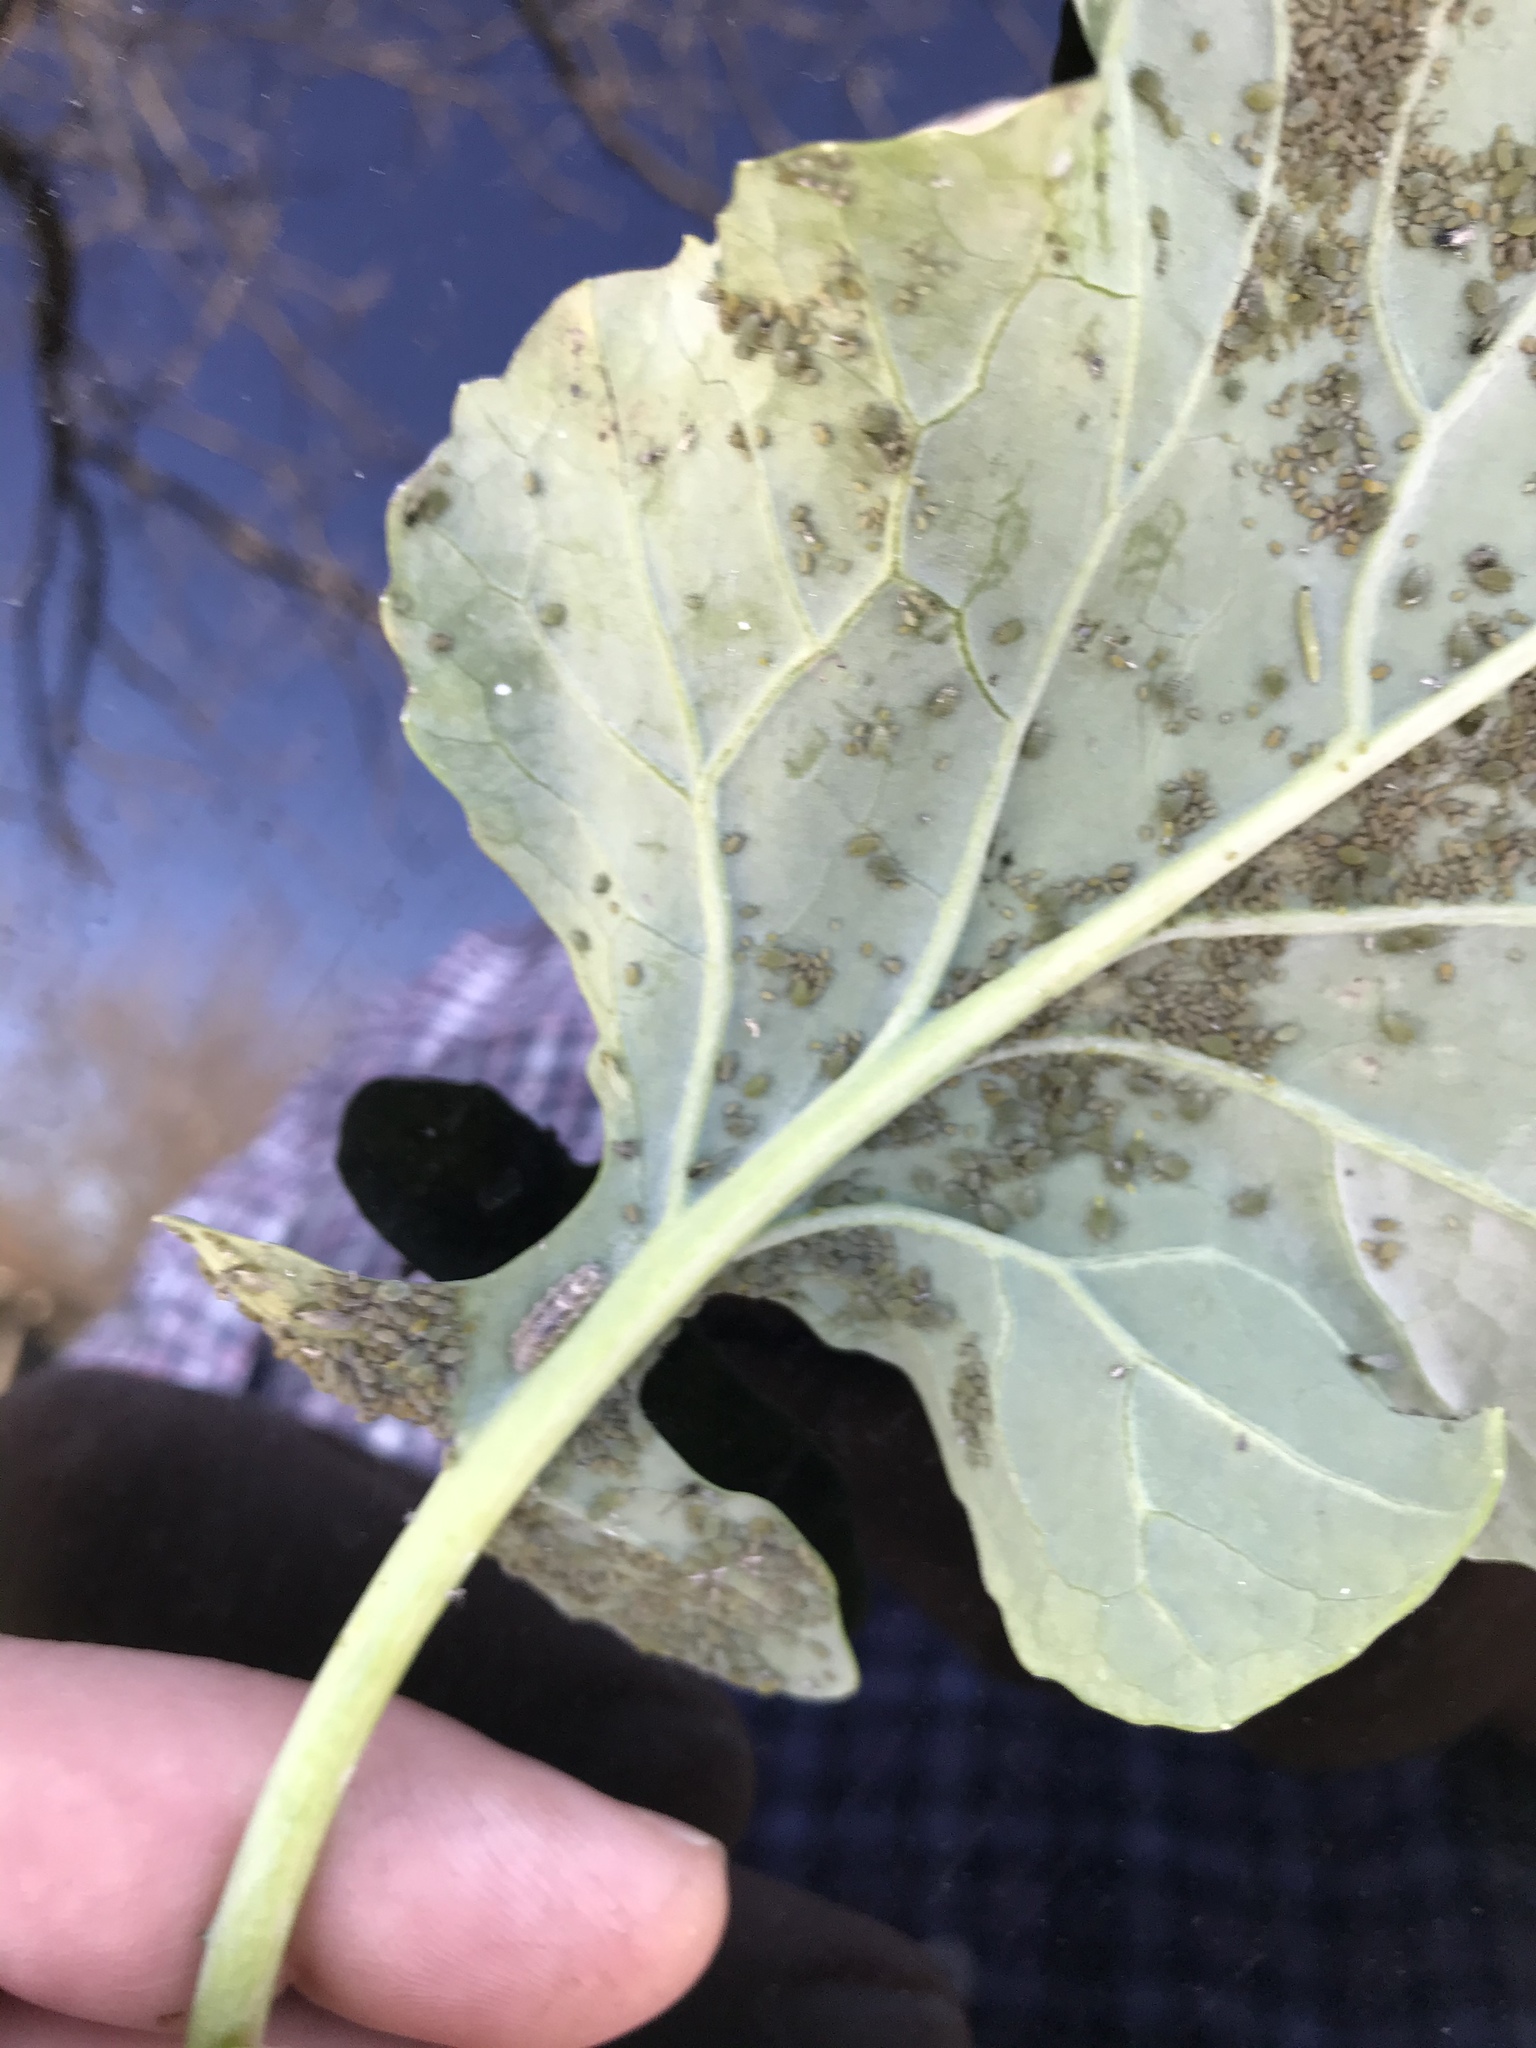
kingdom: Animalia
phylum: Arthropoda
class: Insecta
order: Diptera
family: Syrphidae
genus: Eupeodes
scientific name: Eupeodes americanus
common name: Long-tailed aphideater
